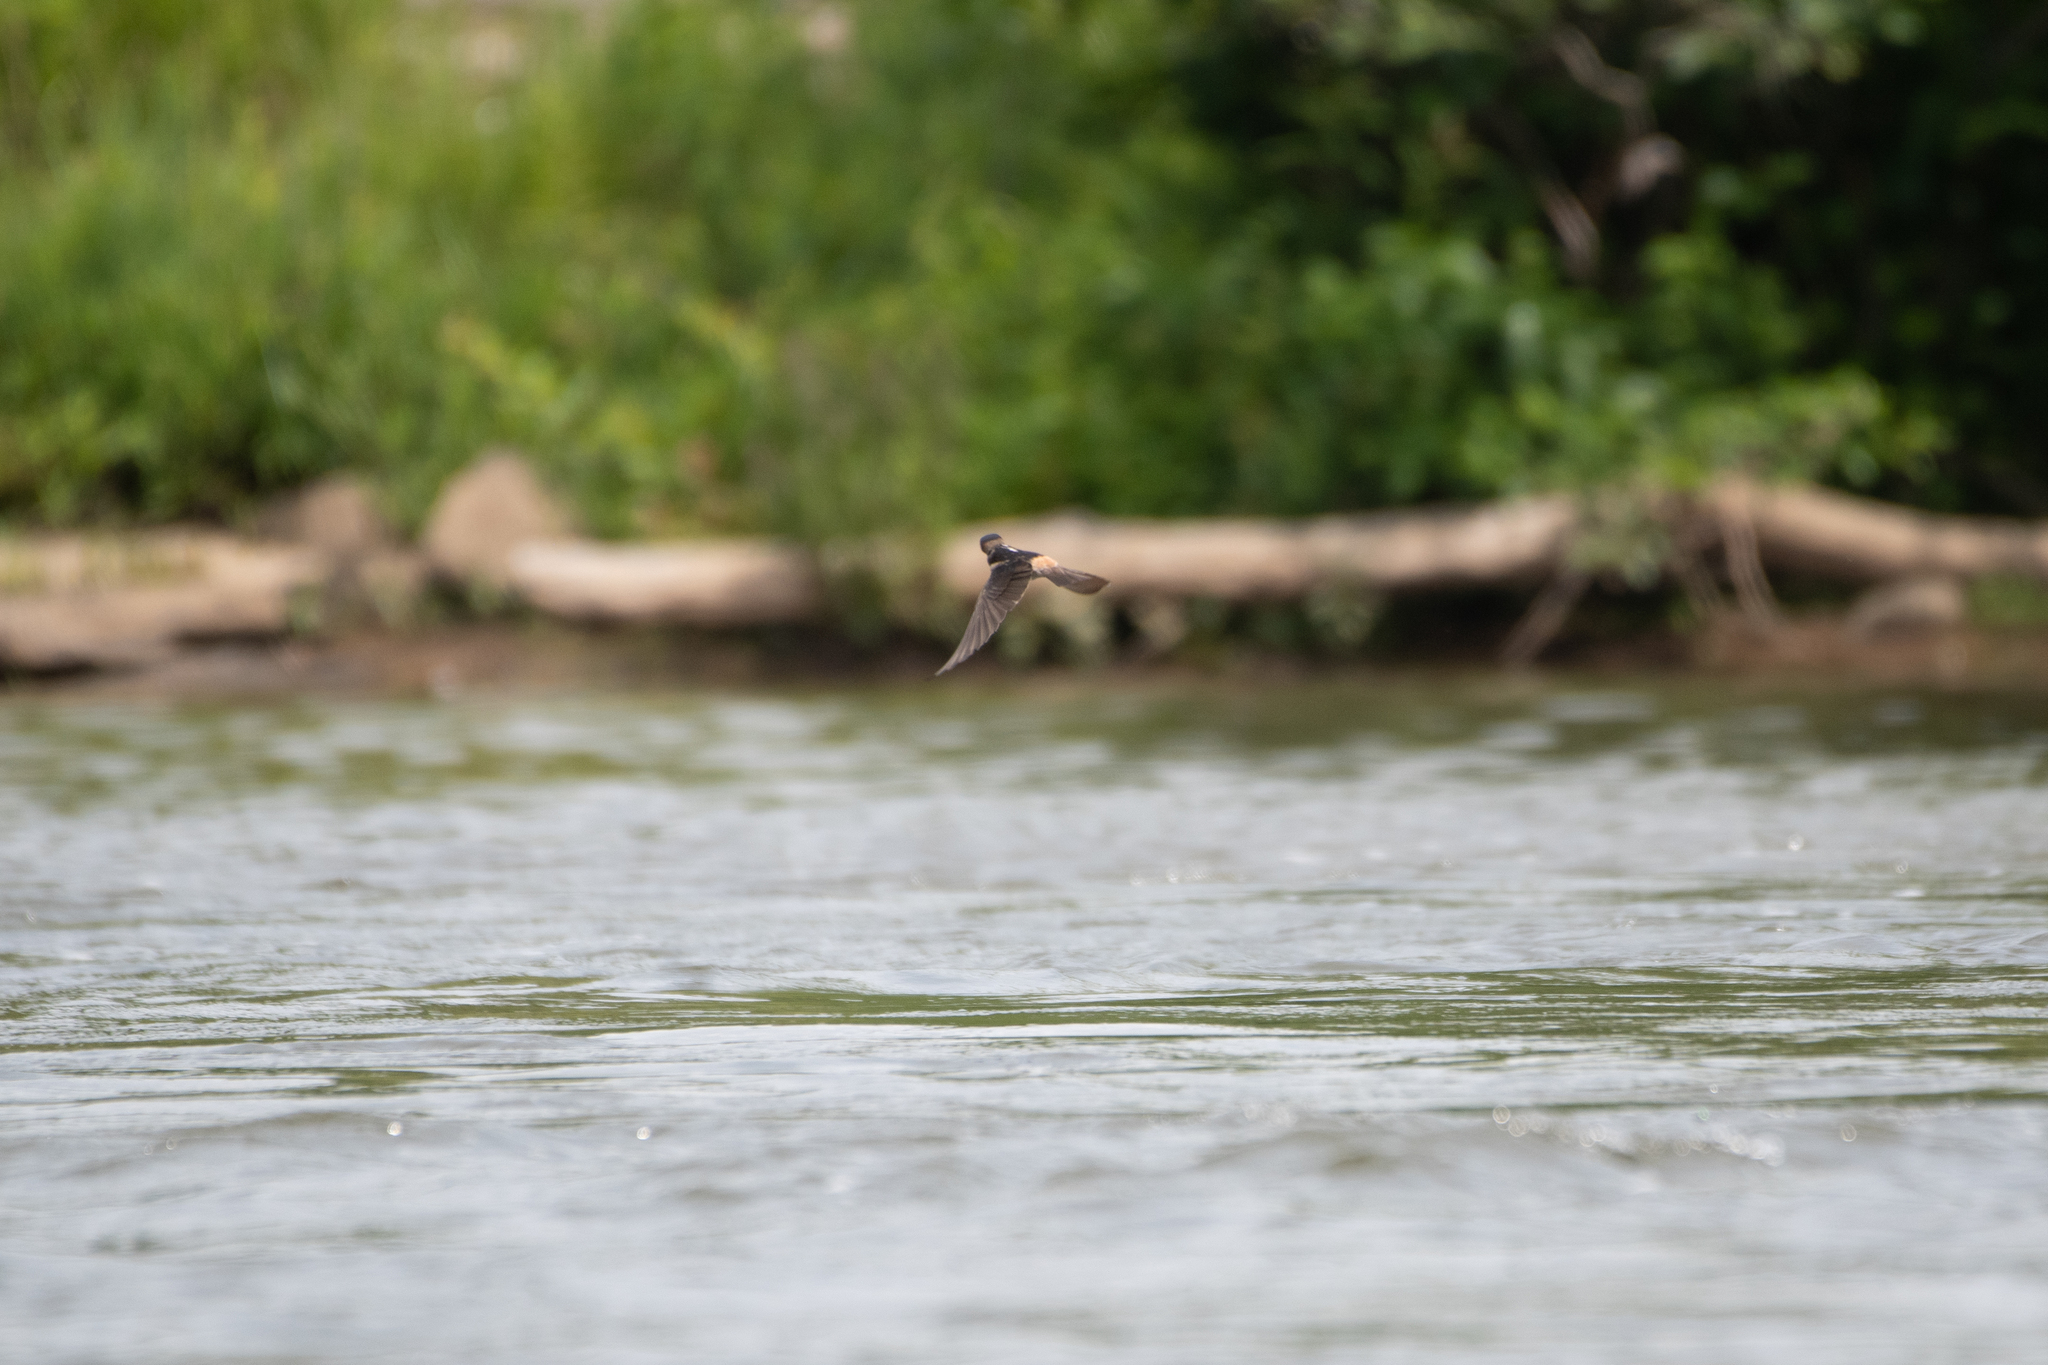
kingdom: Animalia
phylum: Chordata
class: Aves
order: Passeriformes
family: Hirundinidae
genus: Petrochelidon
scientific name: Petrochelidon pyrrhonota
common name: American cliff swallow
